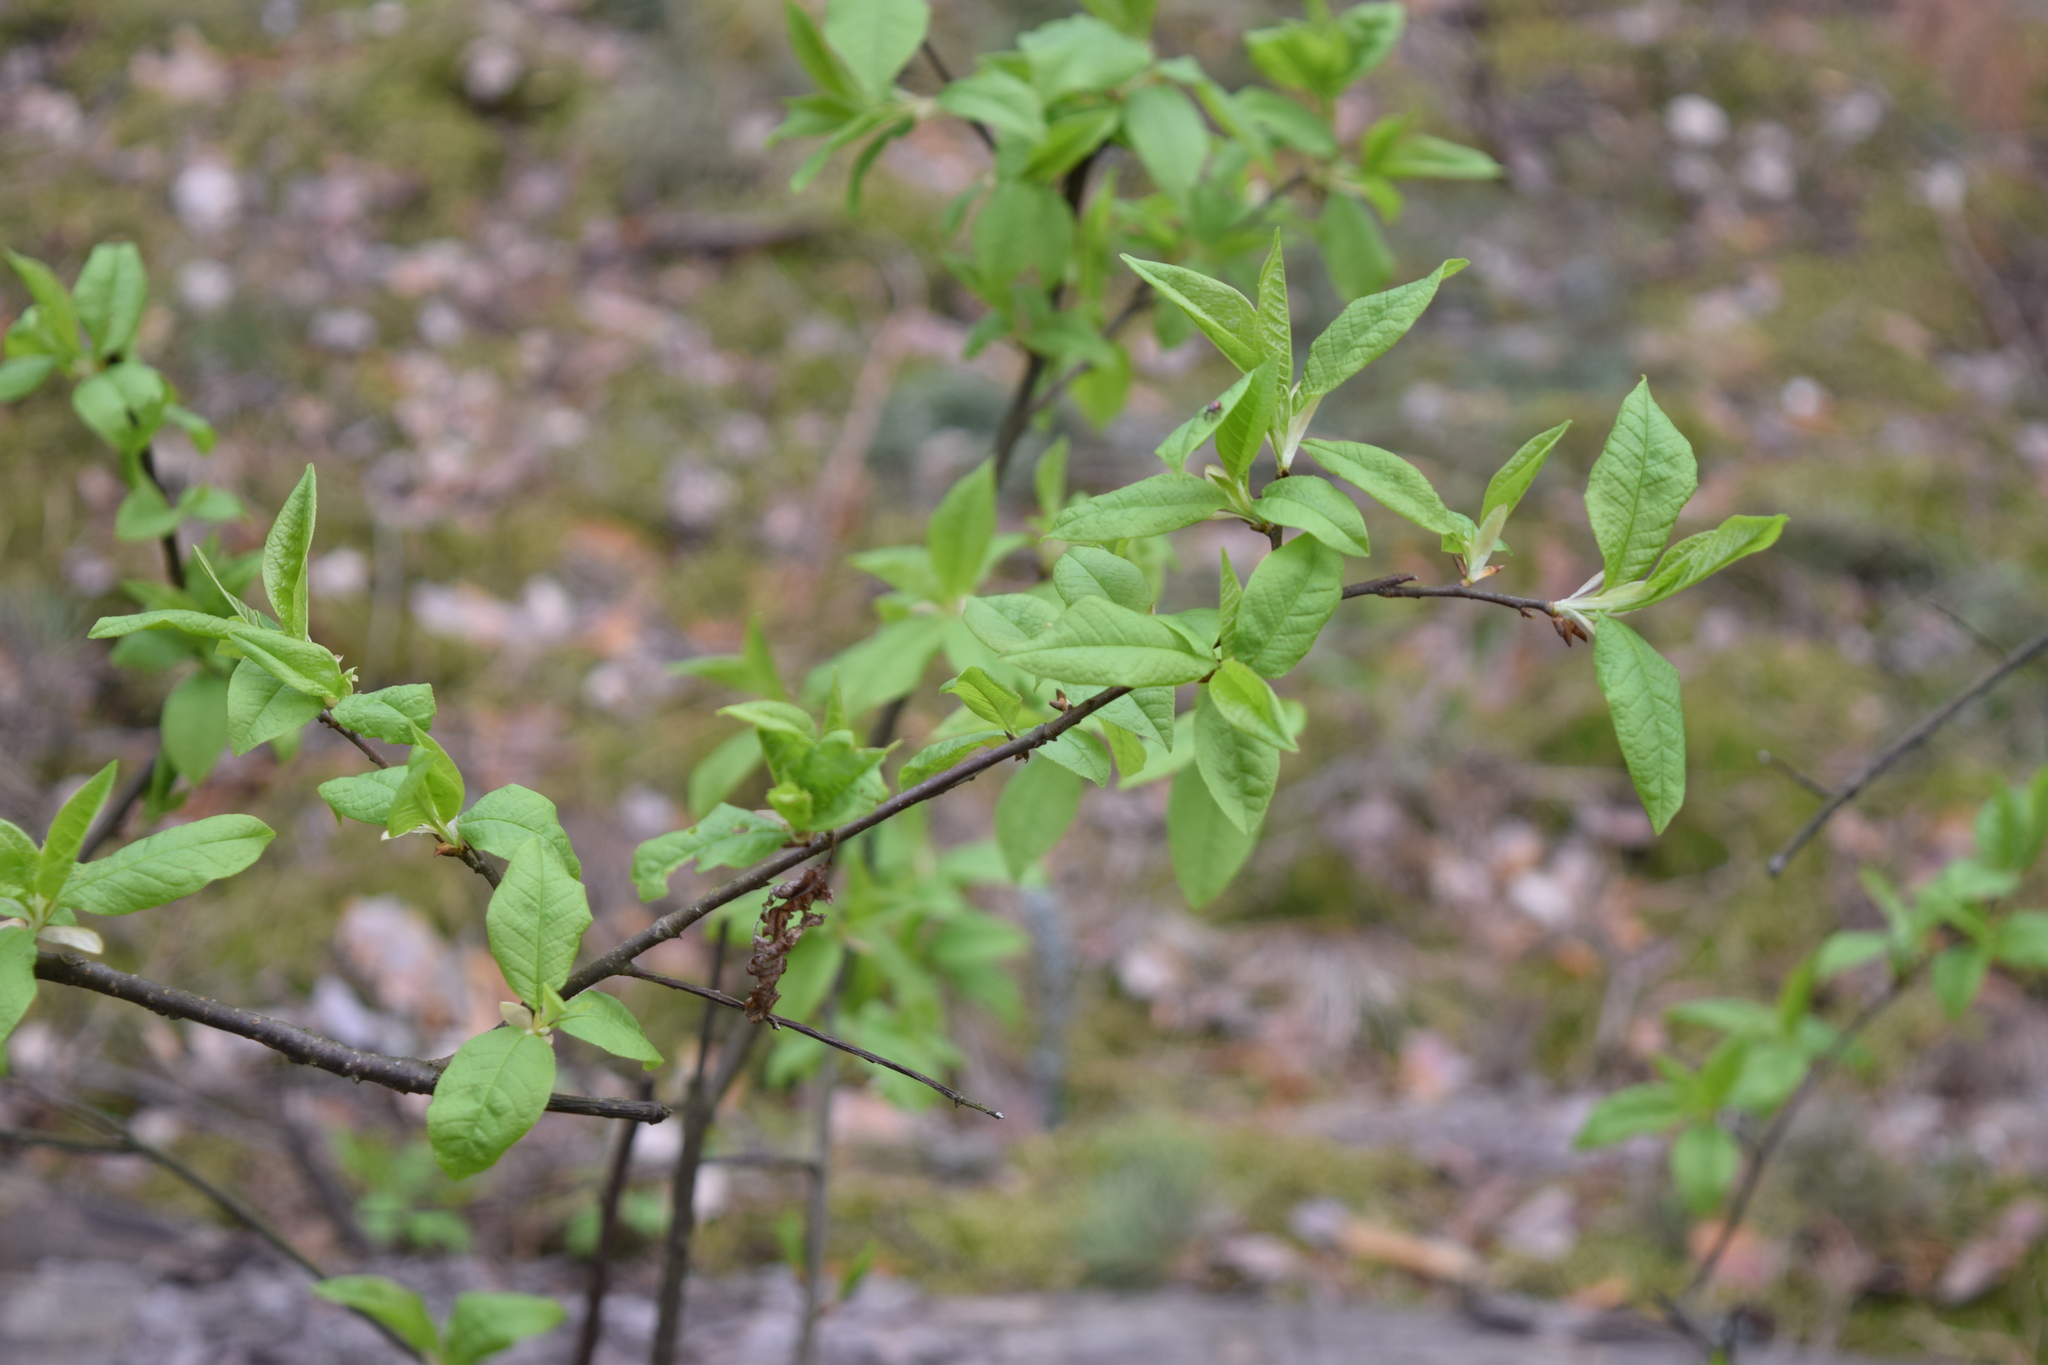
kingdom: Plantae
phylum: Tracheophyta
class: Magnoliopsida
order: Rosales
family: Rosaceae
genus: Prunus
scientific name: Prunus padus
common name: Bird cherry
